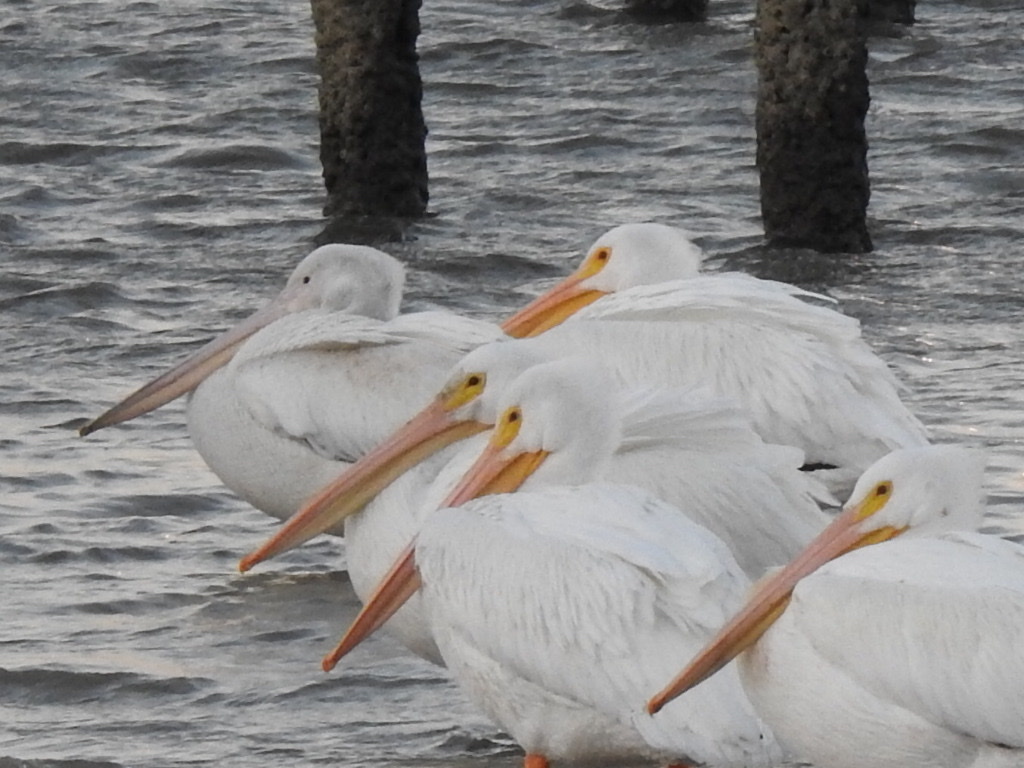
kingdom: Animalia
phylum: Chordata
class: Aves
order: Pelecaniformes
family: Pelecanidae
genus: Pelecanus
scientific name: Pelecanus erythrorhynchos
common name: American white pelican
